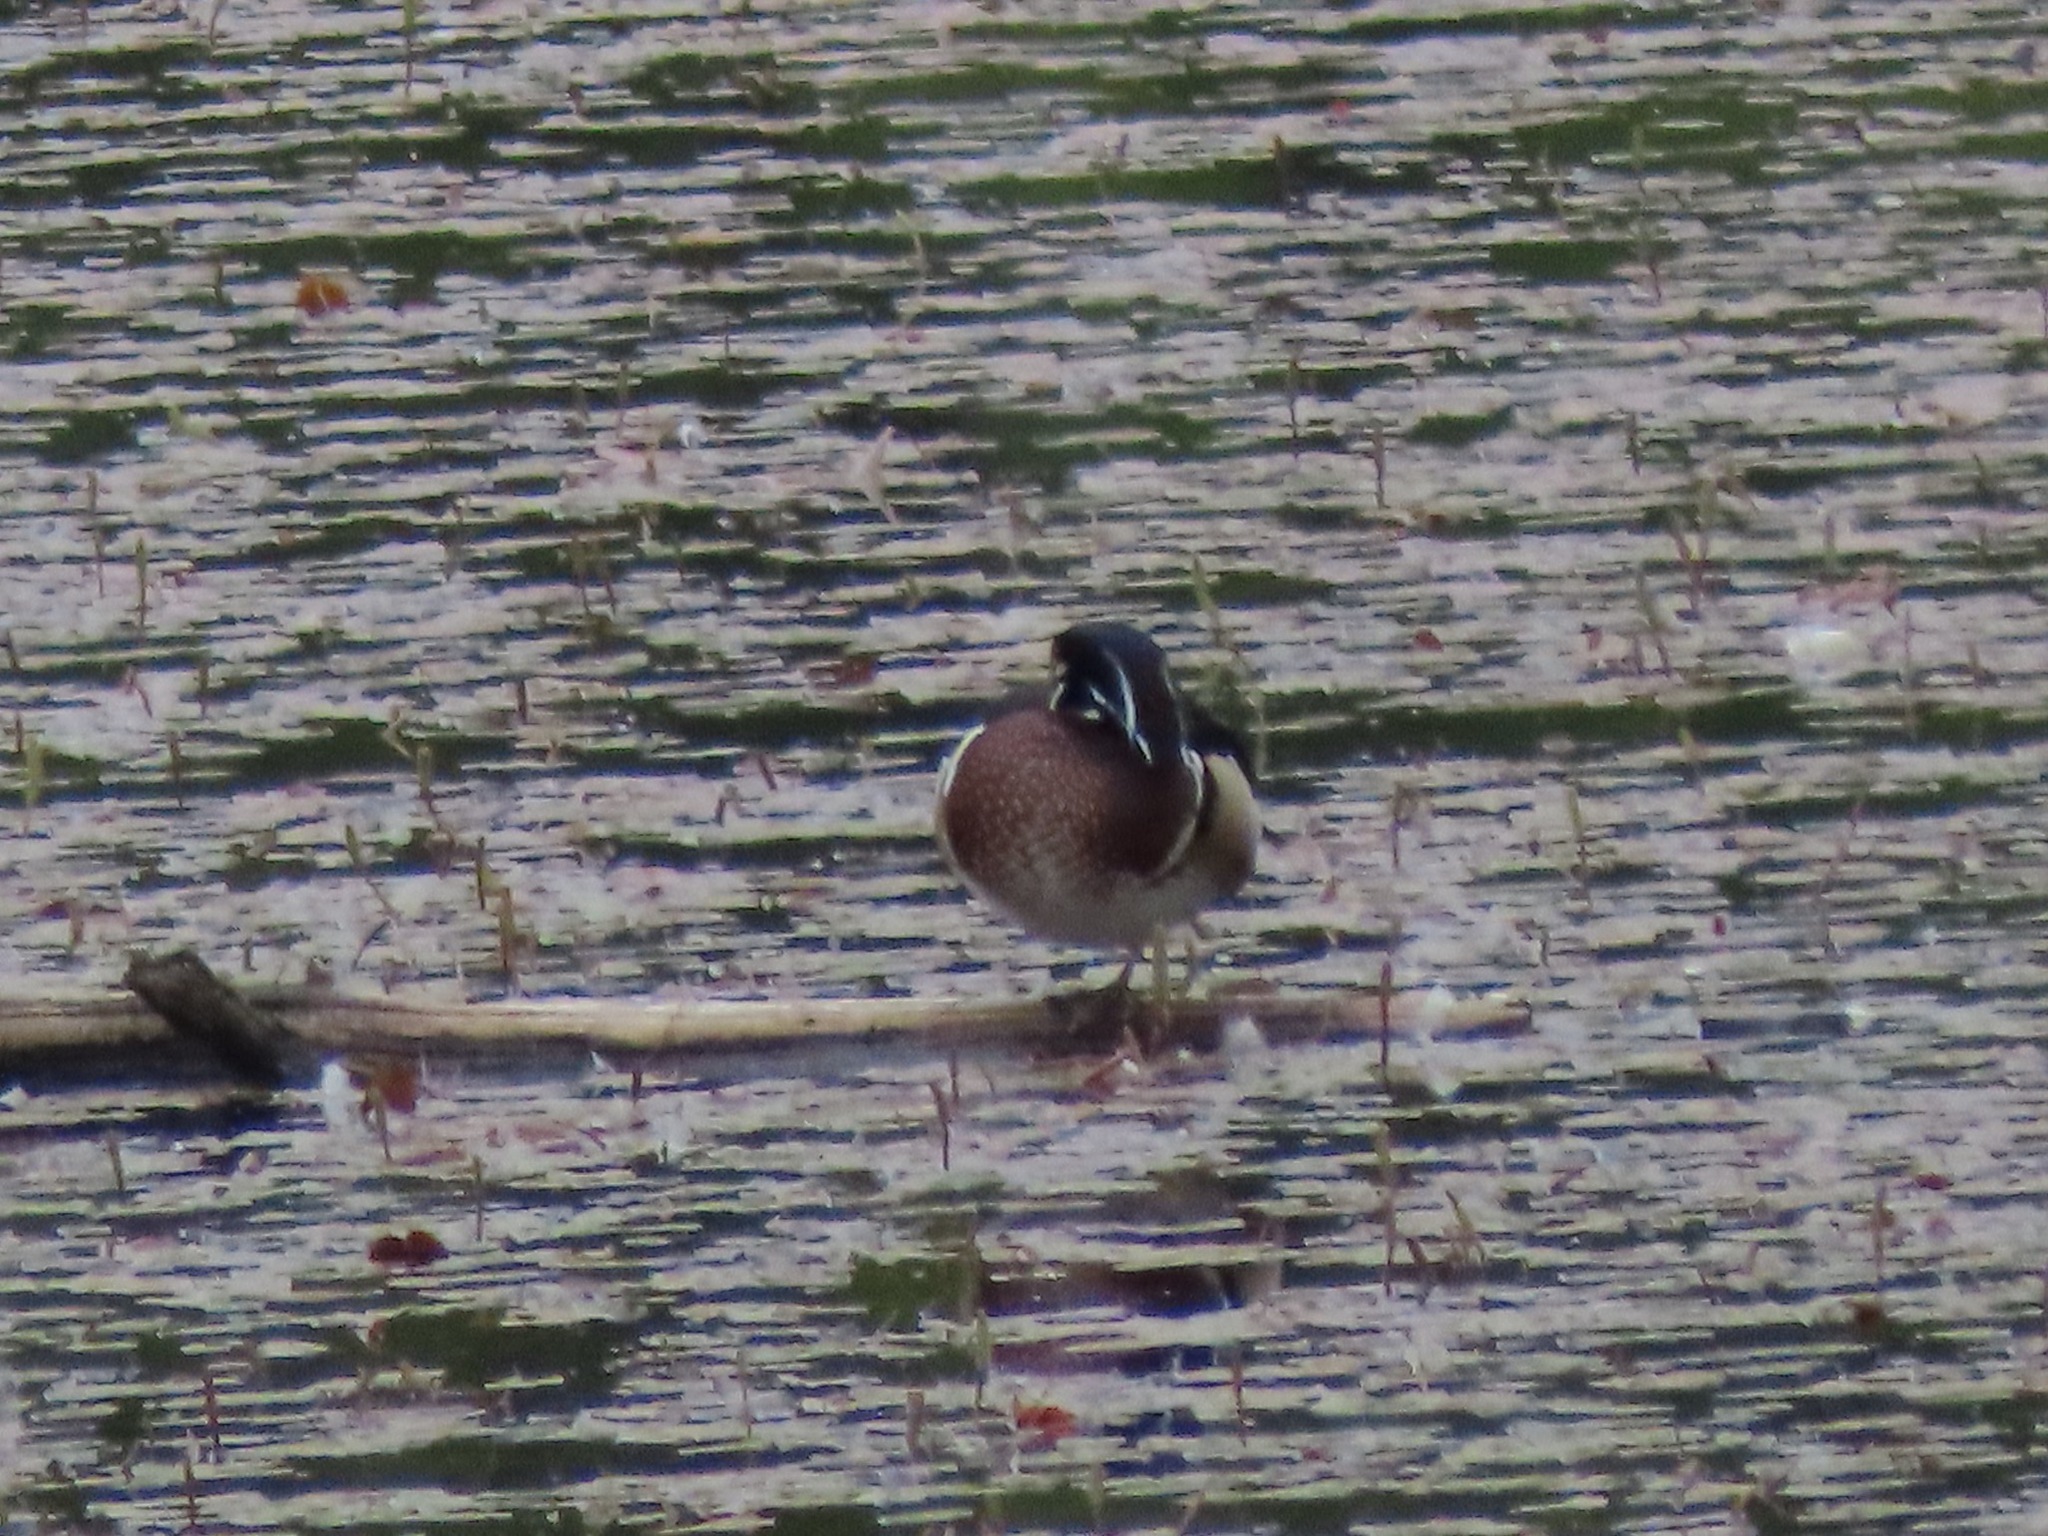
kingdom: Animalia
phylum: Chordata
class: Aves
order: Anseriformes
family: Anatidae
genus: Aix
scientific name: Aix sponsa
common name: Wood duck
